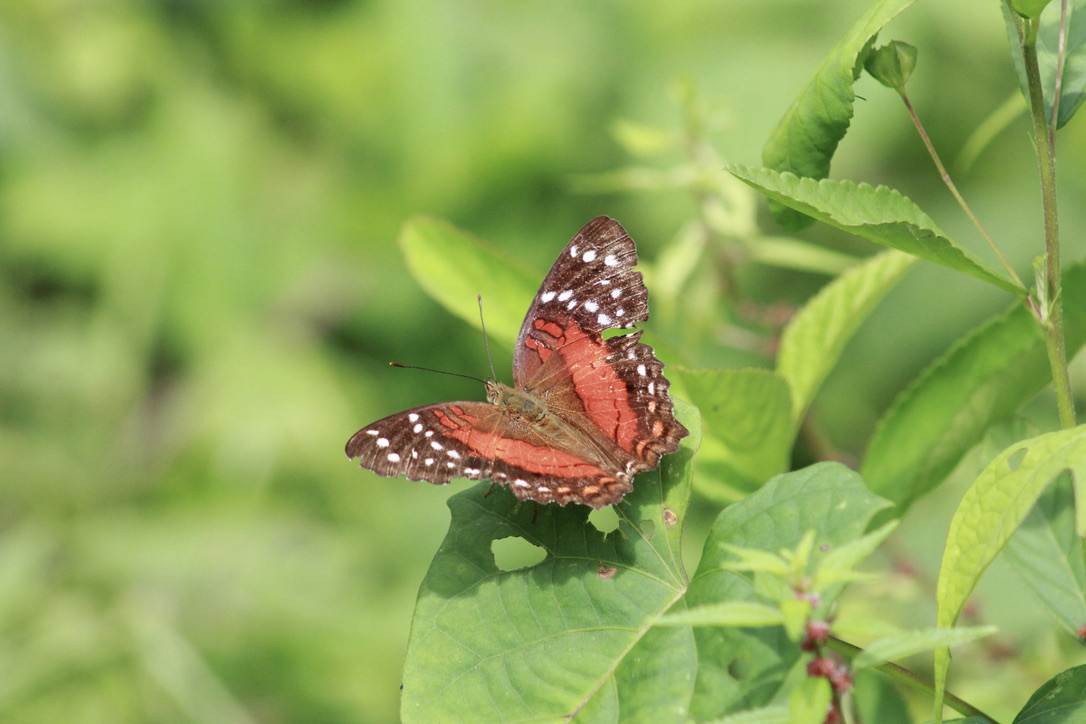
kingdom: Animalia
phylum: Arthropoda
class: Insecta
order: Lepidoptera
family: Nymphalidae
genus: Anartia
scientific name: Anartia amathea
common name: Red peacock
